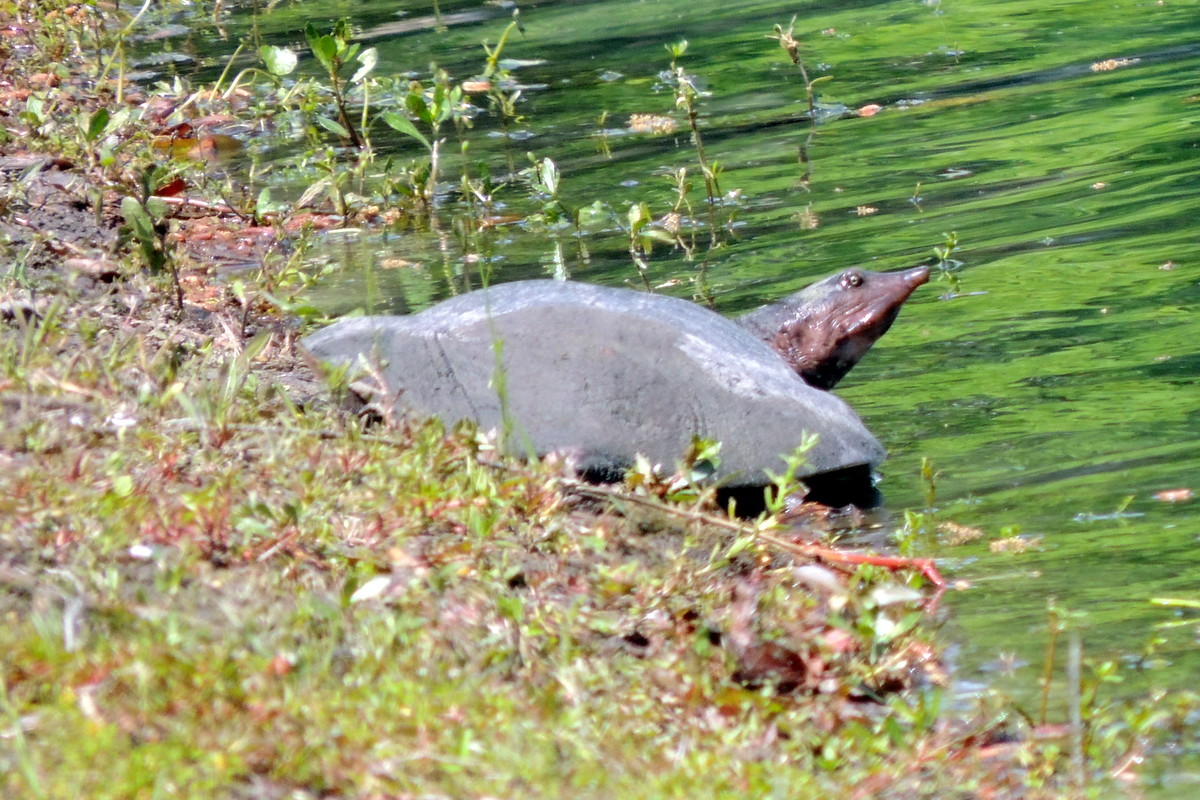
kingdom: Animalia
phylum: Chordata
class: Testudines
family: Trionychidae
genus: Apalone
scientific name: Apalone ferox
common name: Florida softshell turtle
